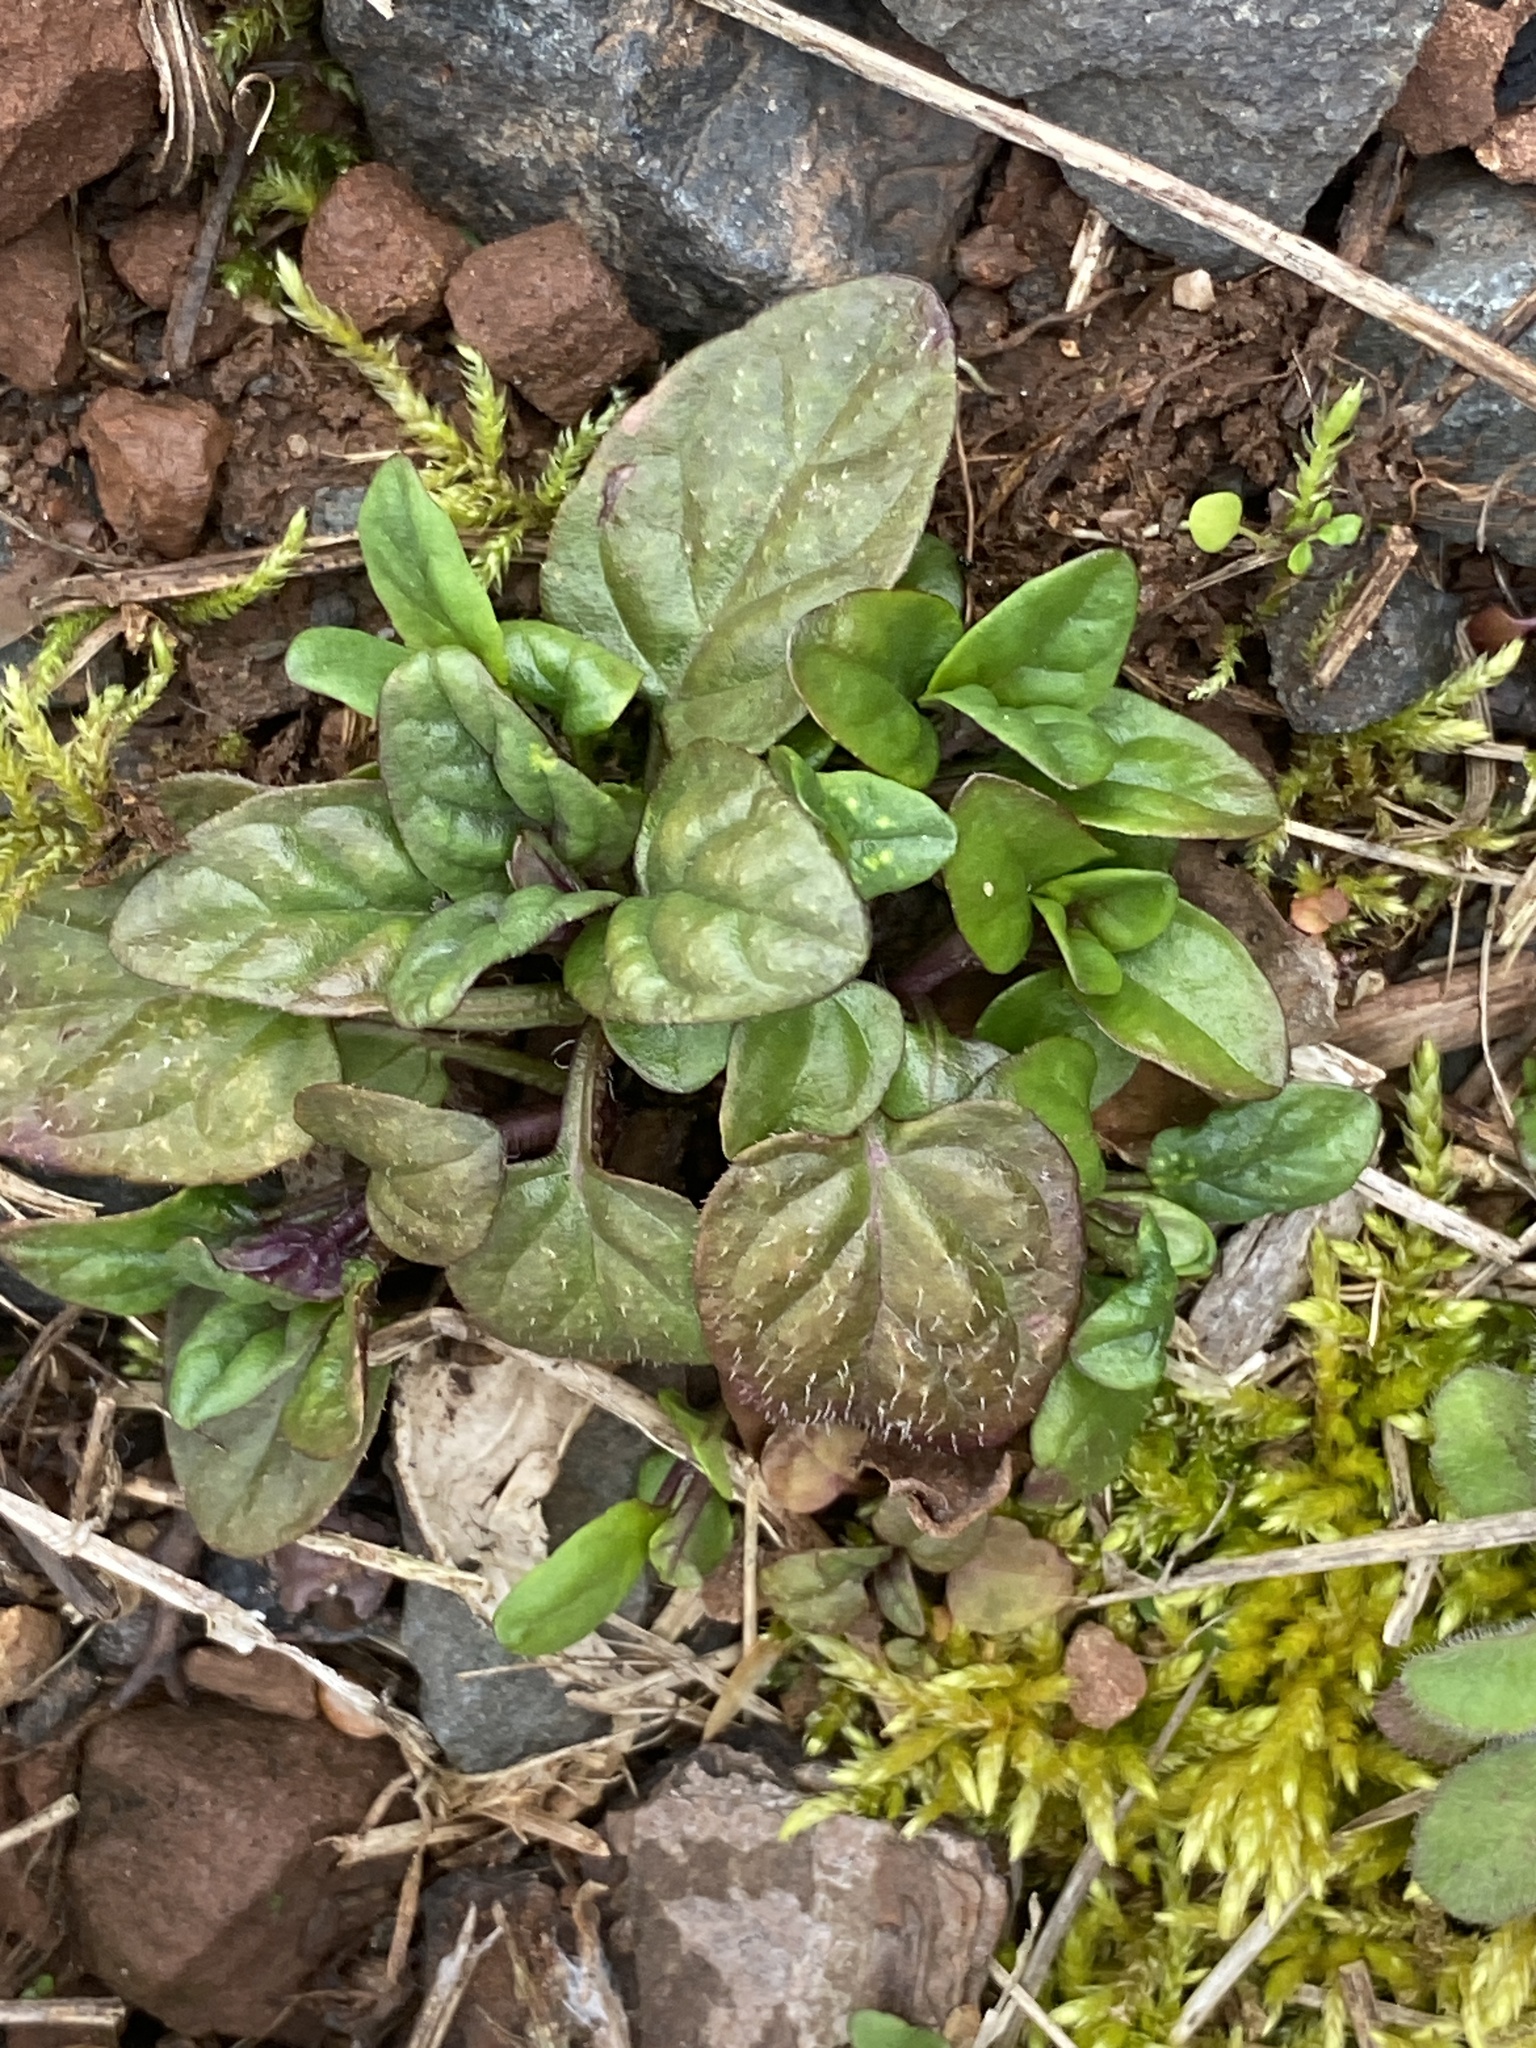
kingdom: Plantae
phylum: Tracheophyta
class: Magnoliopsida
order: Lamiales
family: Lamiaceae
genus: Prunella
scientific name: Prunella vulgaris
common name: Heal-all
